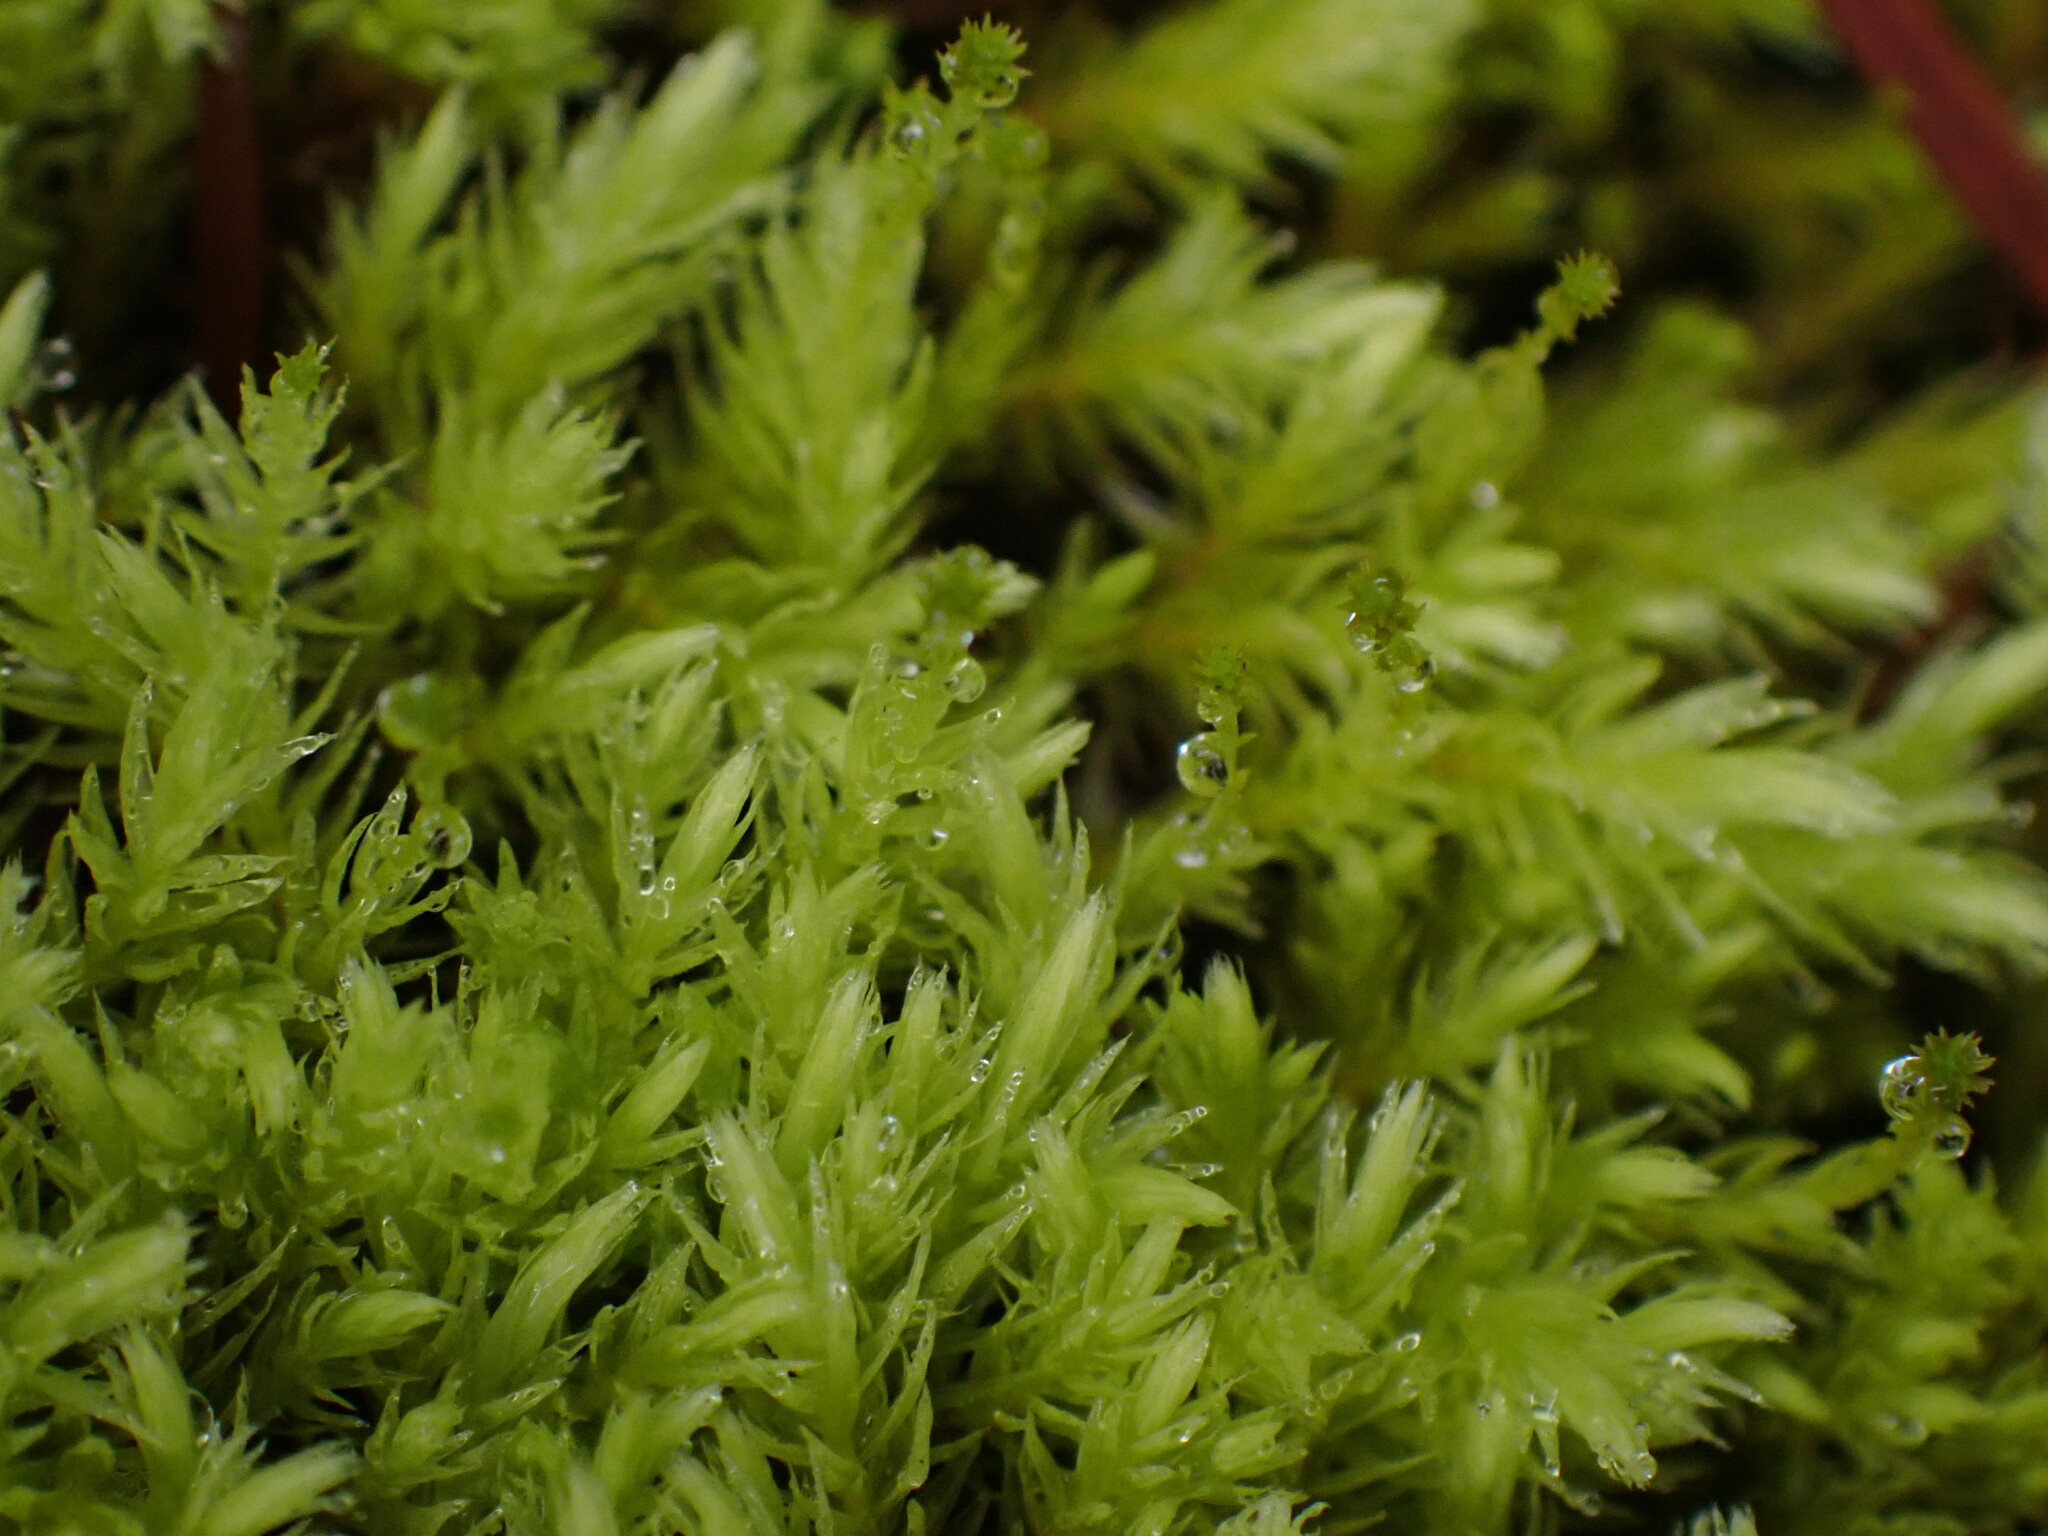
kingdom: Plantae
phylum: Bryophyta
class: Bryopsida
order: Aulacomniales
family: Aulacomniaceae
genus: Aulacomnium
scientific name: Aulacomnium palustre
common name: Bog groove-moss
